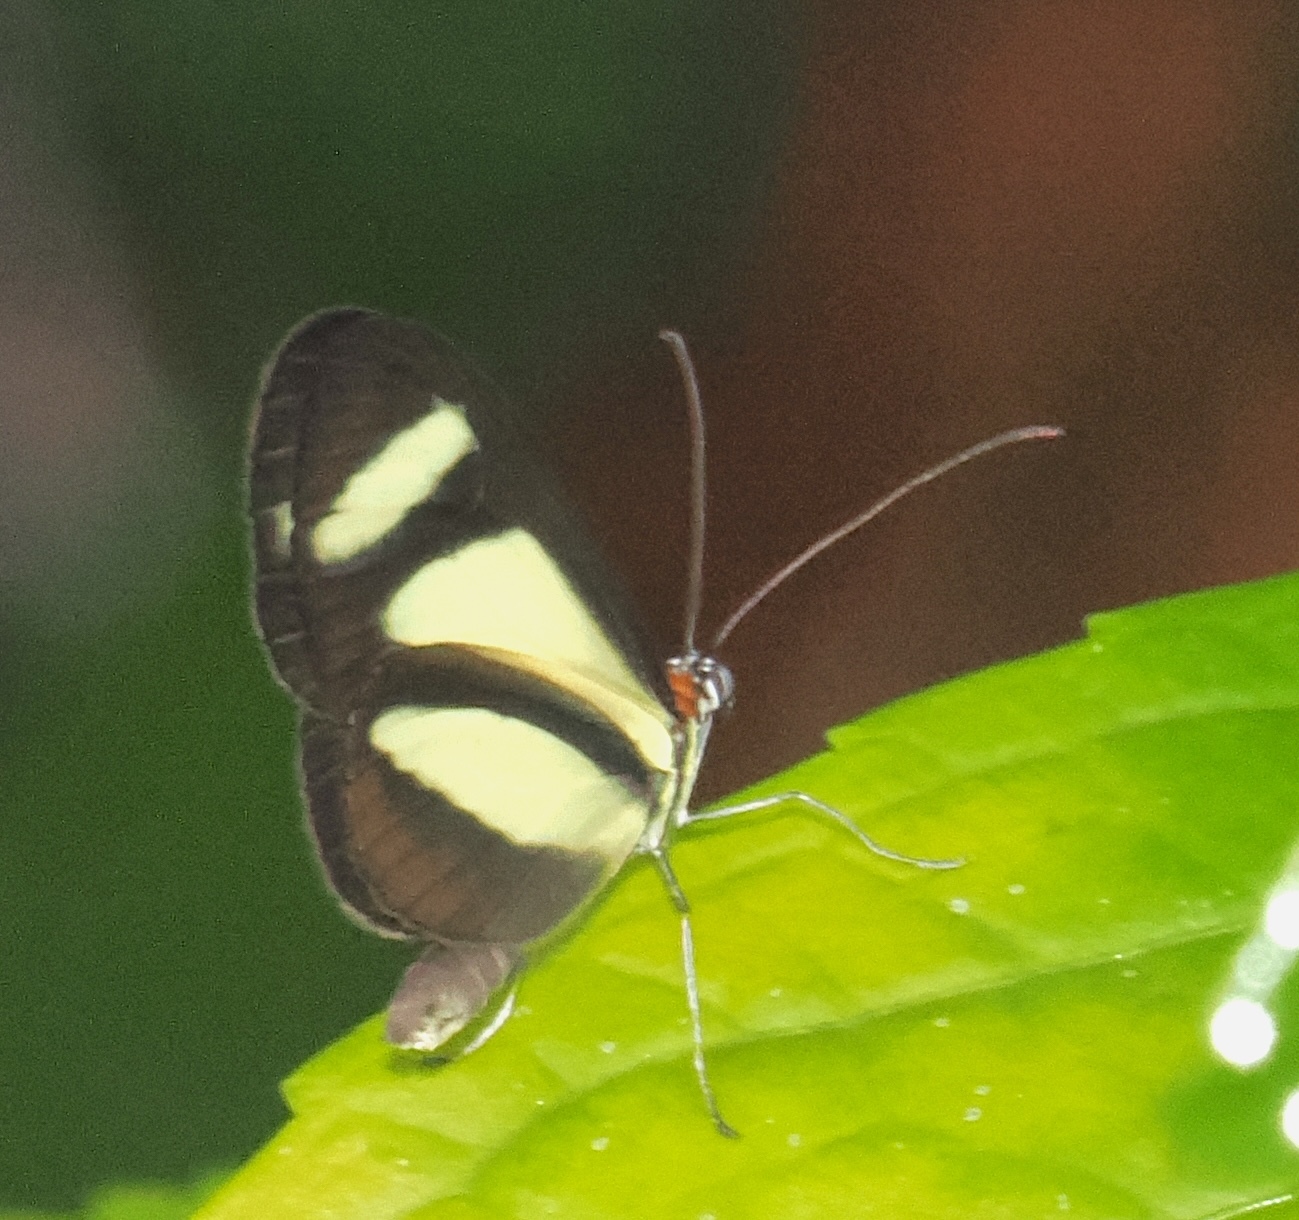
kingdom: Animalia
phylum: Arthropoda
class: Insecta
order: Lepidoptera
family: Nymphalidae
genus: Aeria
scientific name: Aeria olena
